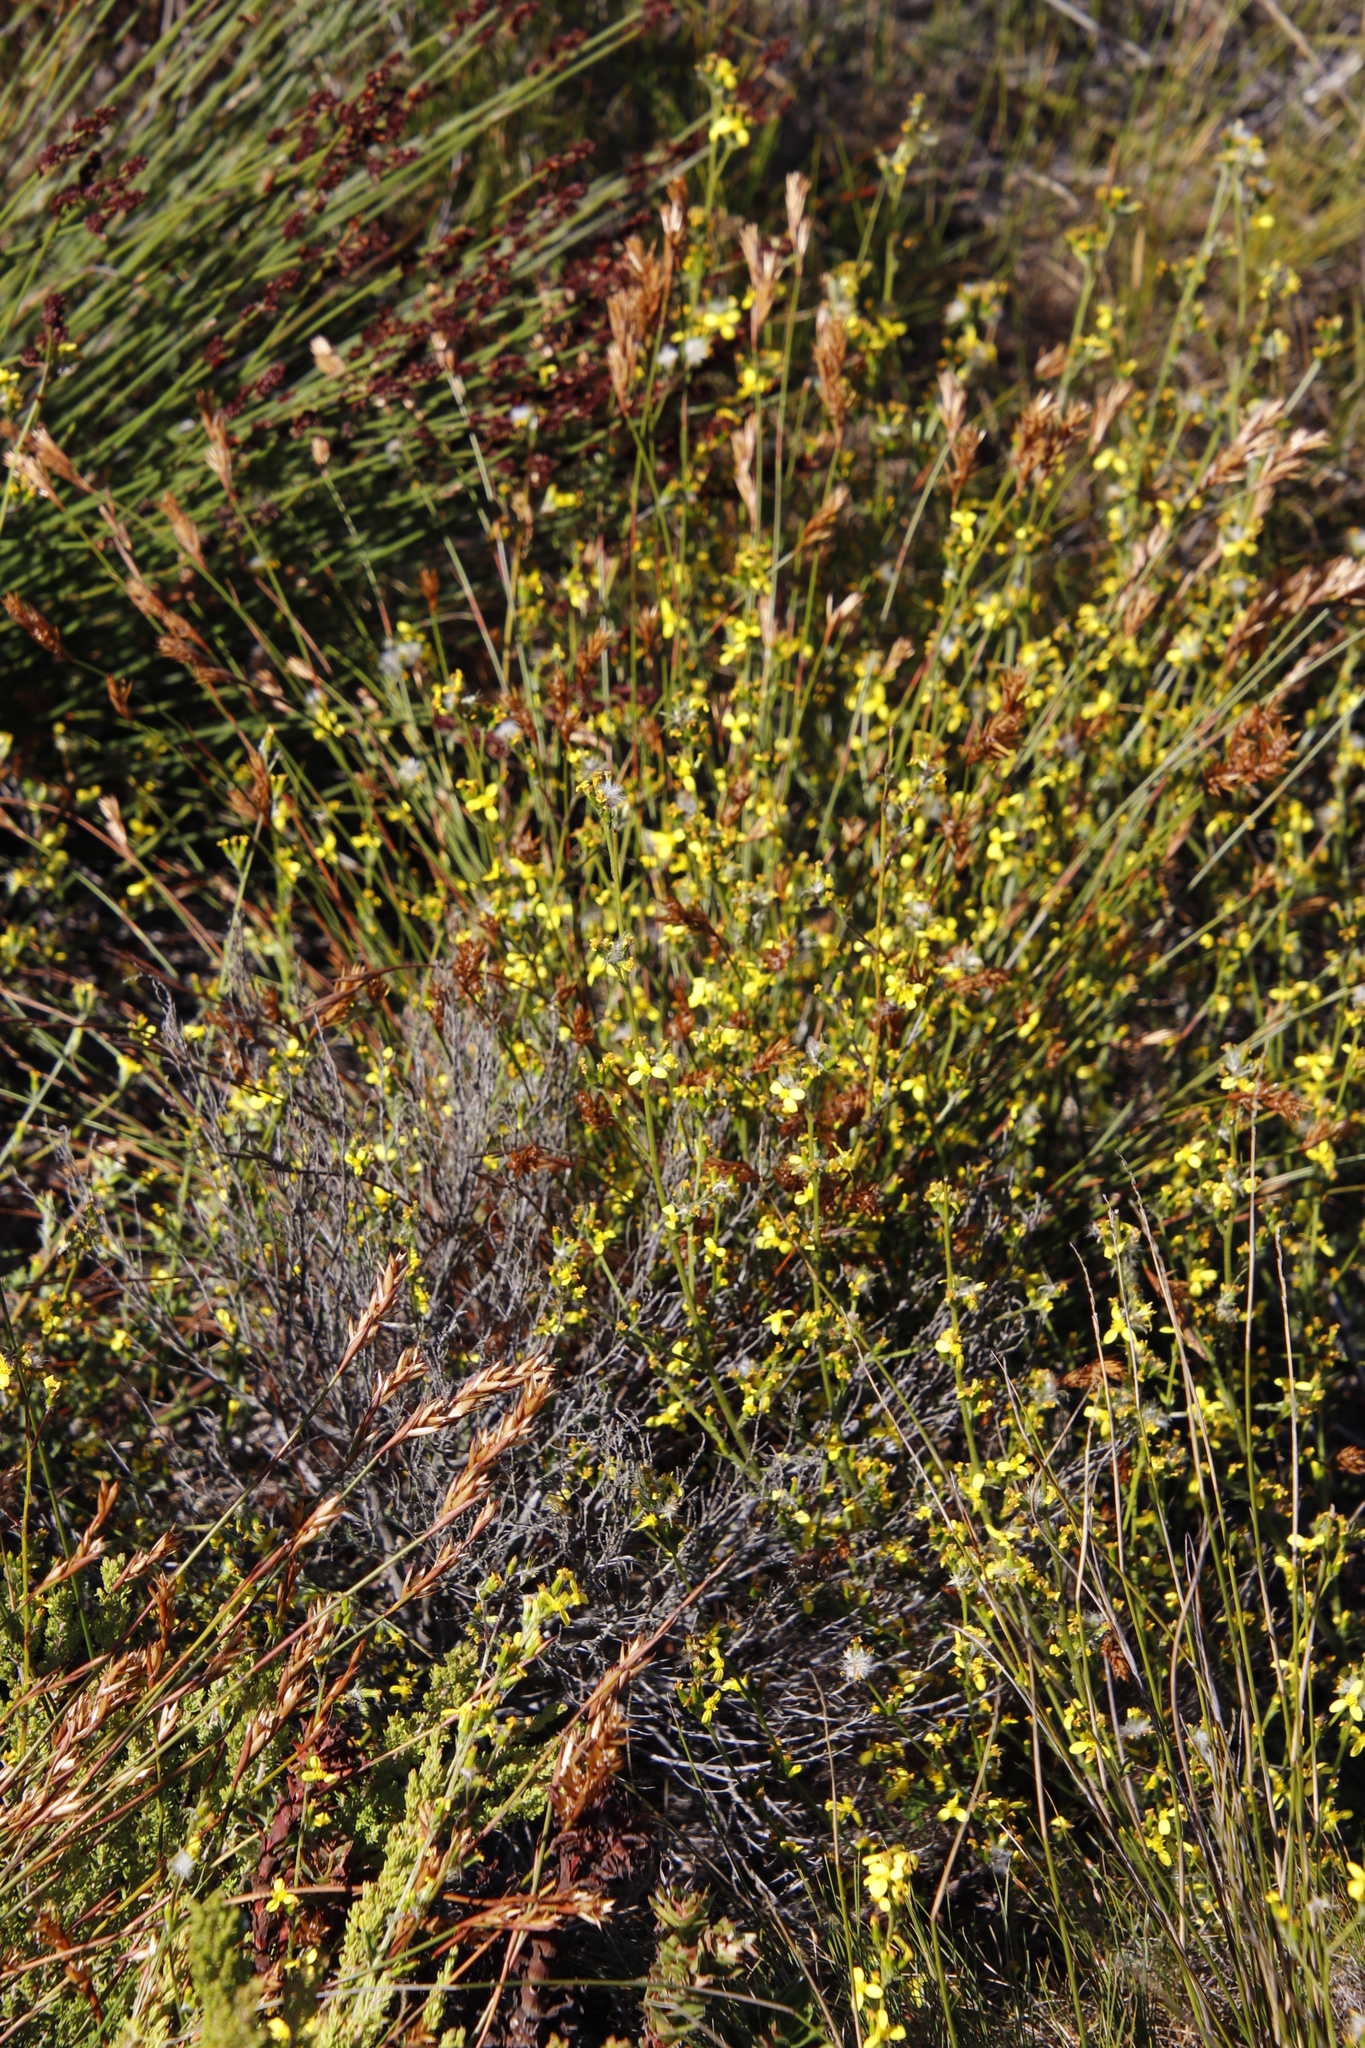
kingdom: Plantae
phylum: Tracheophyta
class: Magnoliopsida
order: Asterales
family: Asteraceae
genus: Senecio
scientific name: Senecio pubigerus
